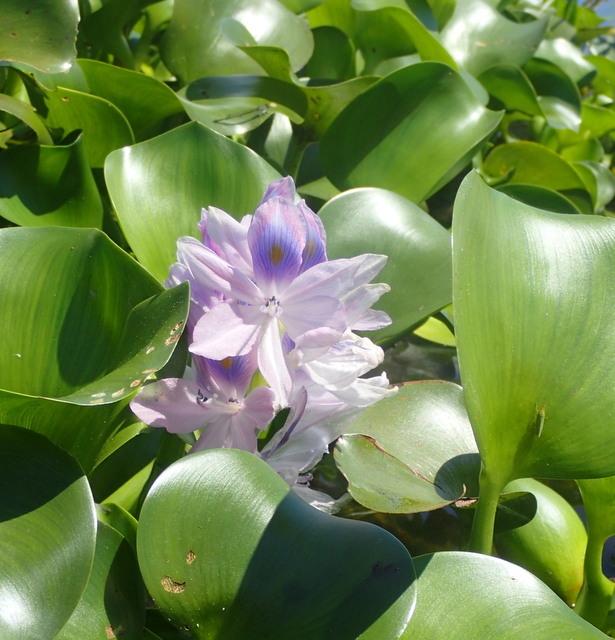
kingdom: Plantae
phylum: Tracheophyta
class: Liliopsida
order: Commelinales
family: Pontederiaceae
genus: Pontederia
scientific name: Pontederia crassipes
